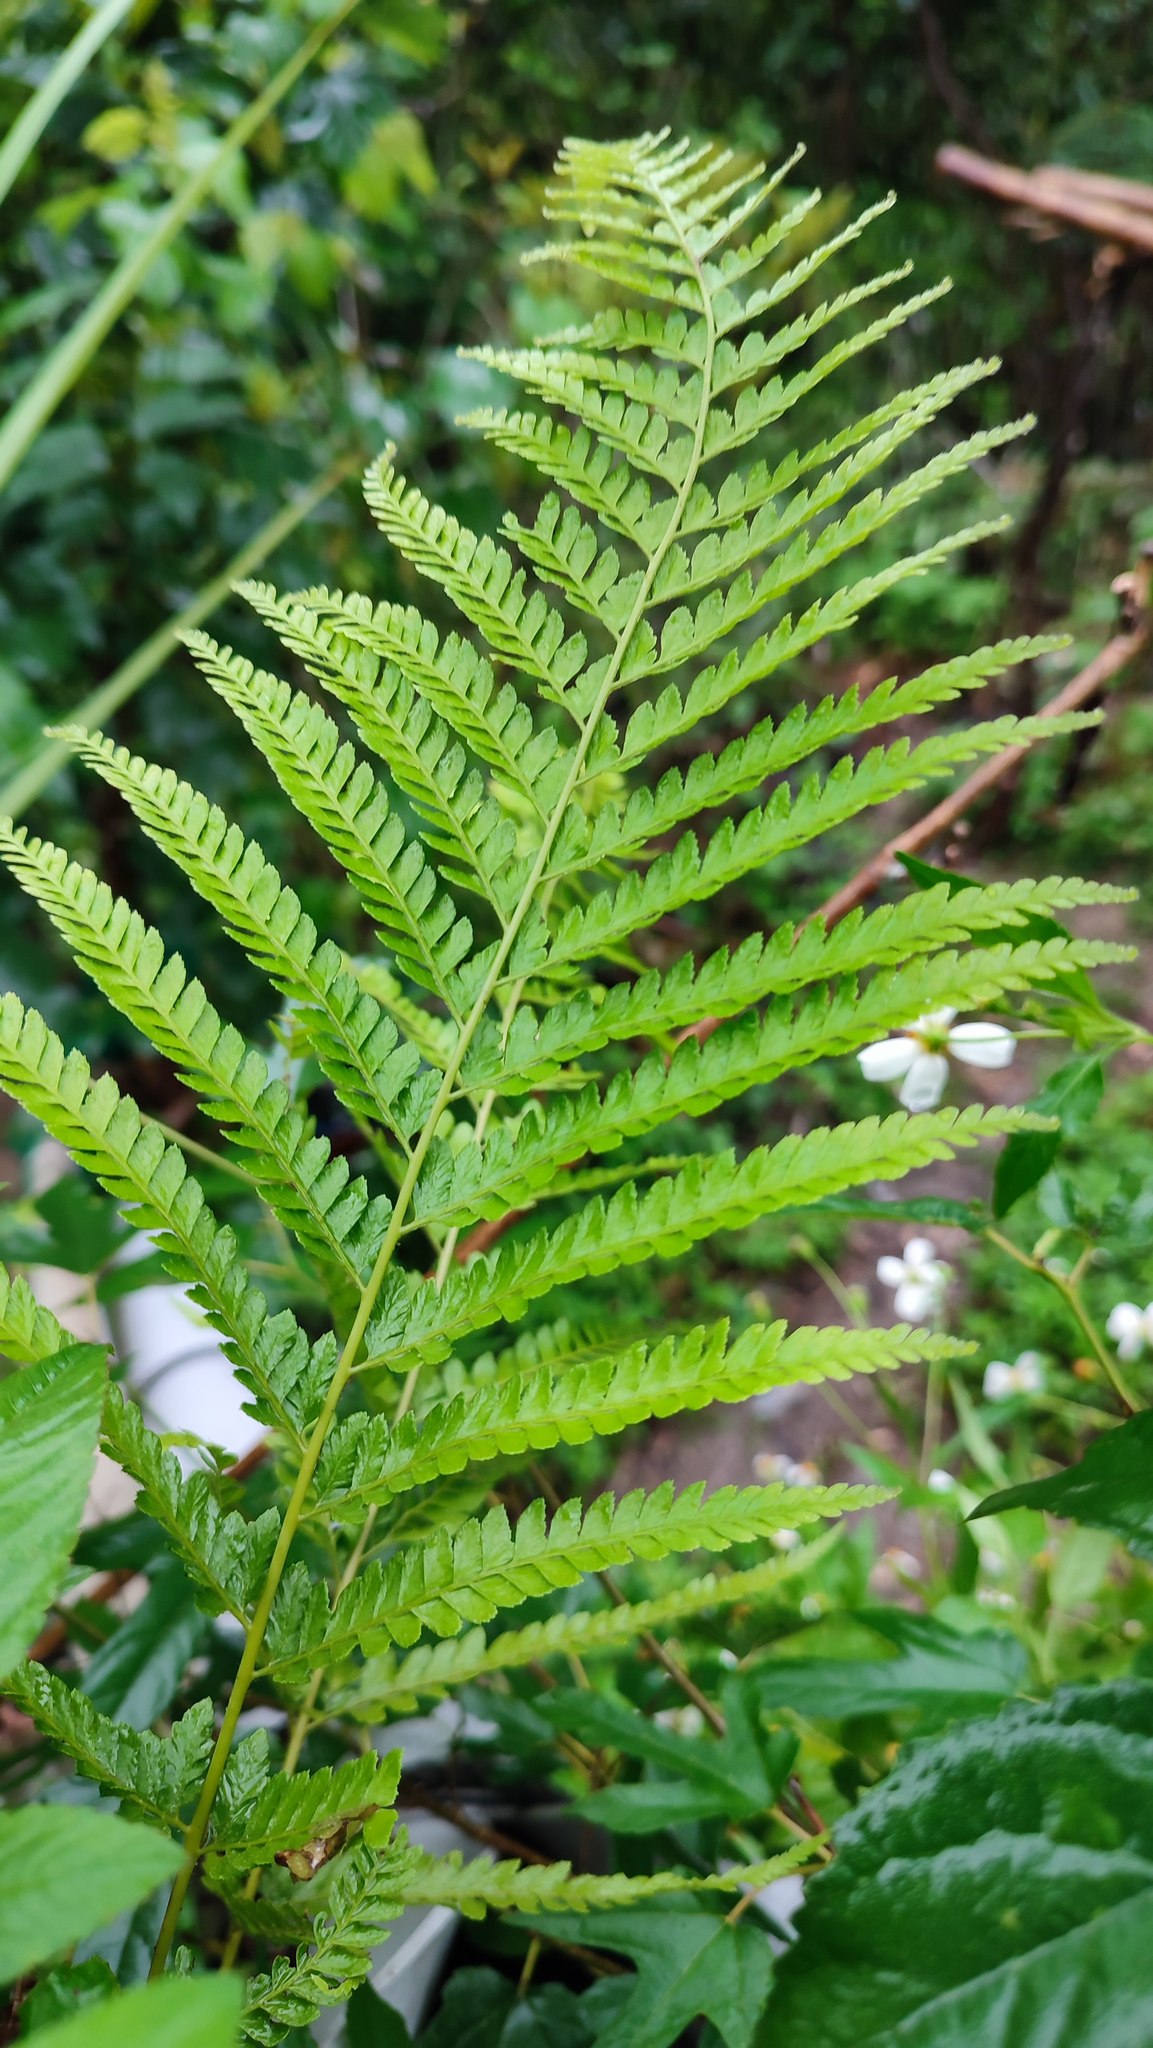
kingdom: Plantae
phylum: Tracheophyta
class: Polypodiopsida
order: Polypodiales
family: Dennstaedtiaceae
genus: Microlepia
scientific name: Microlepia strigosa
